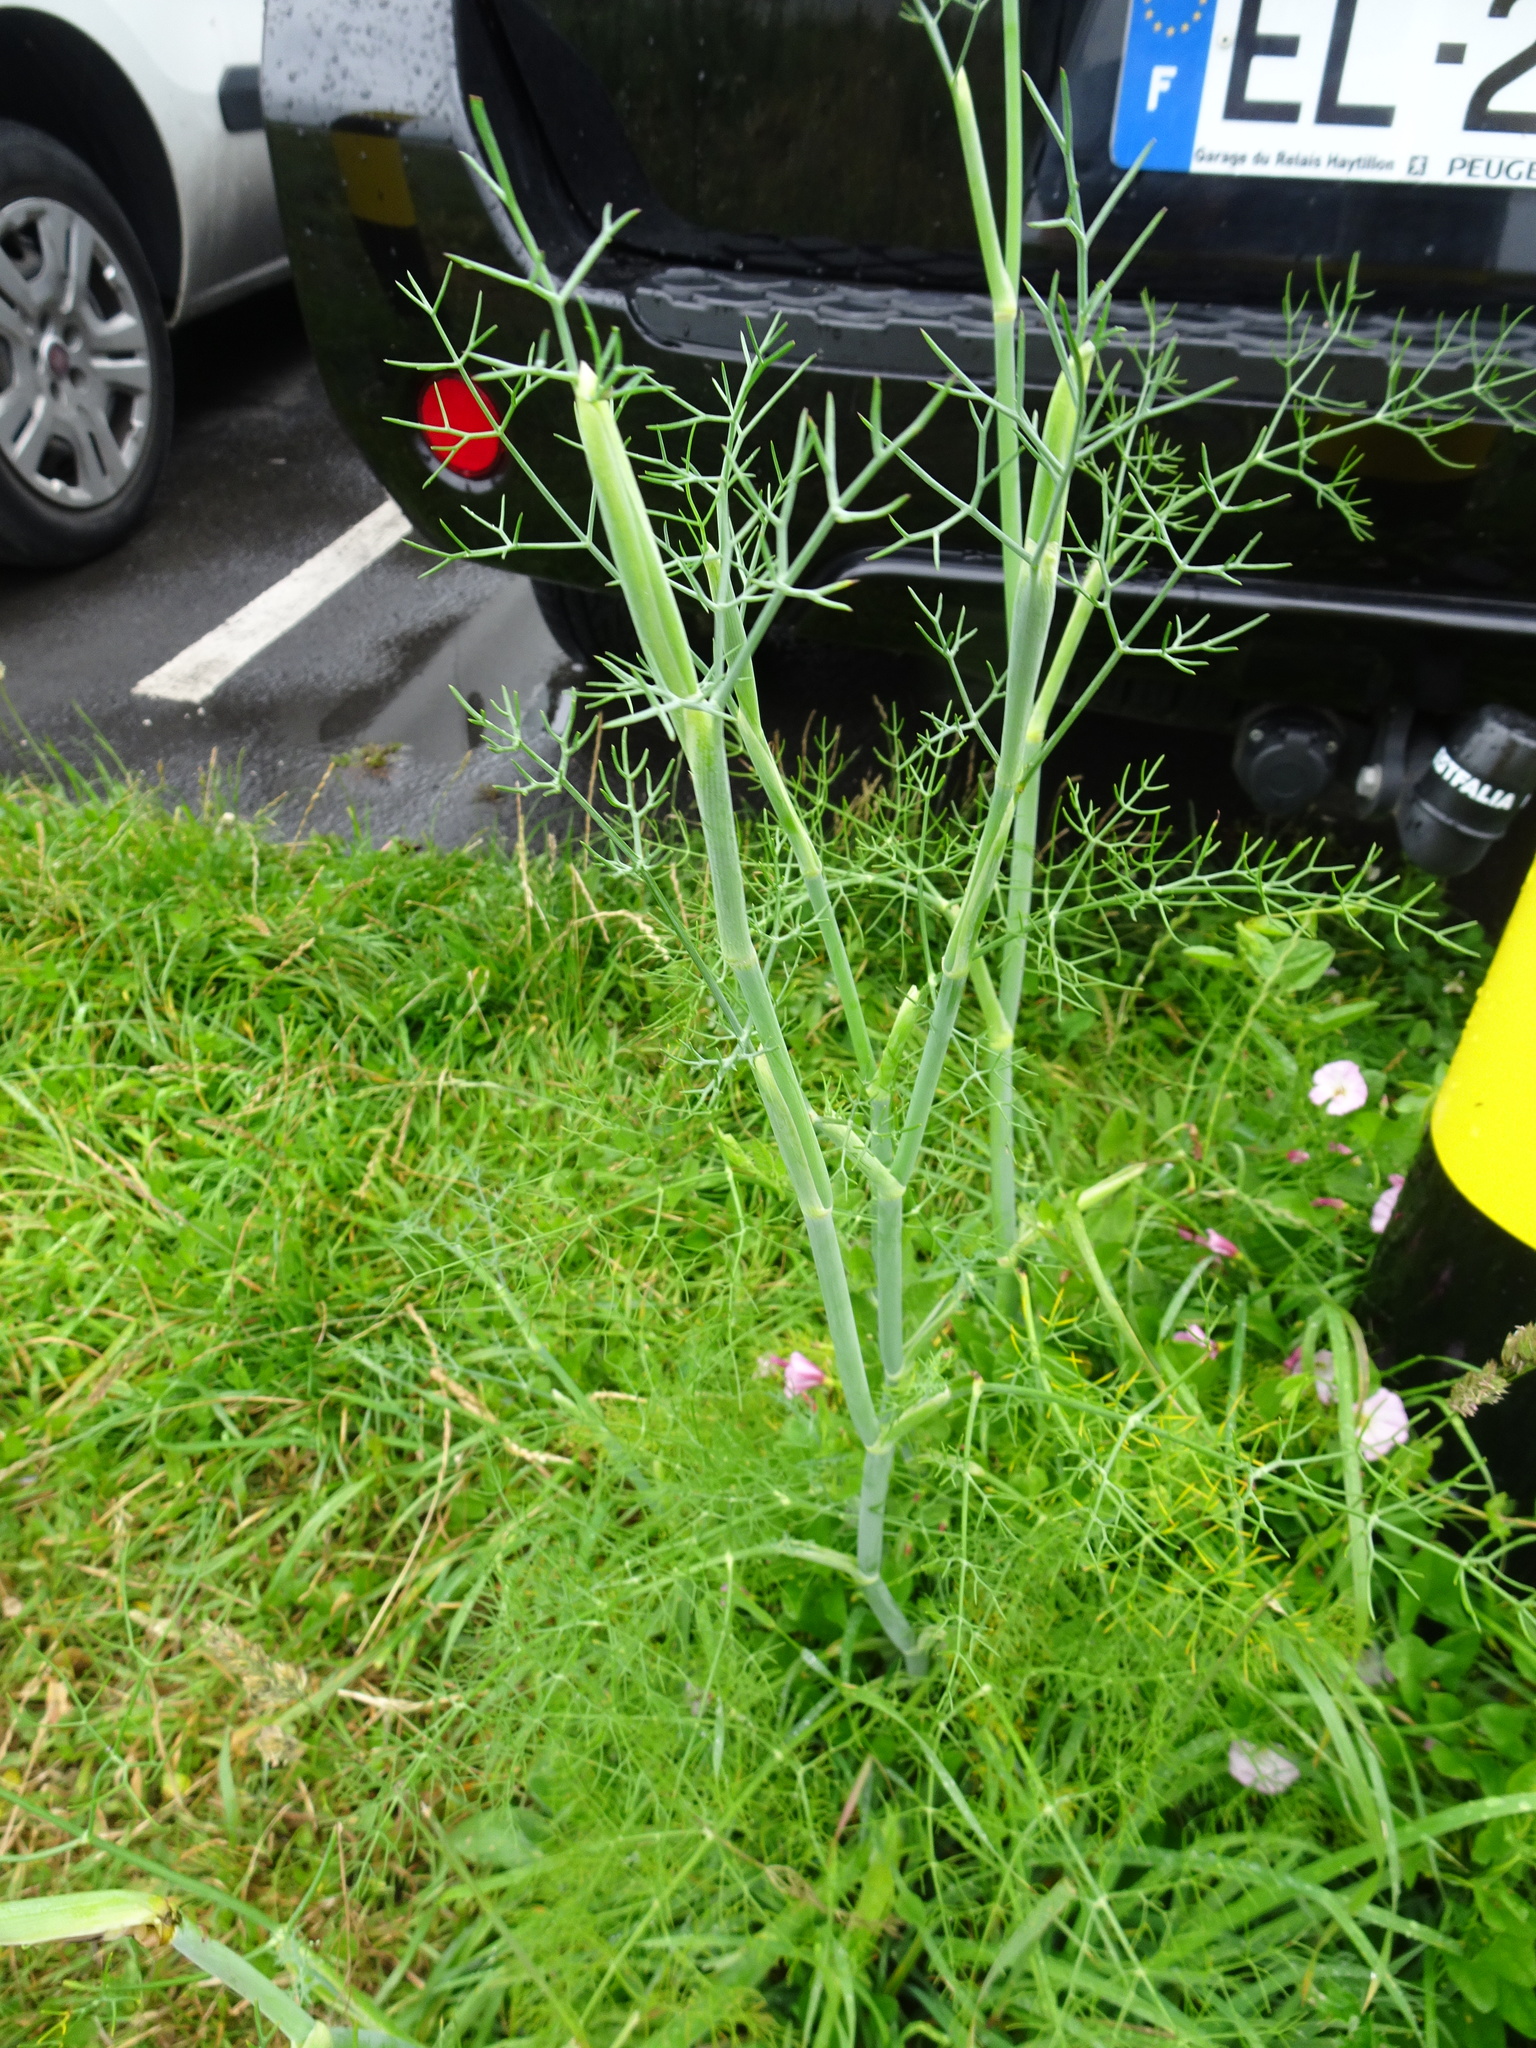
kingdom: Plantae
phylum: Tracheophyta
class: Magnoliopsida
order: Apiales
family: Apiaceae
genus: Foeniculum
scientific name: Foeniculum vulgare
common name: Fennel
